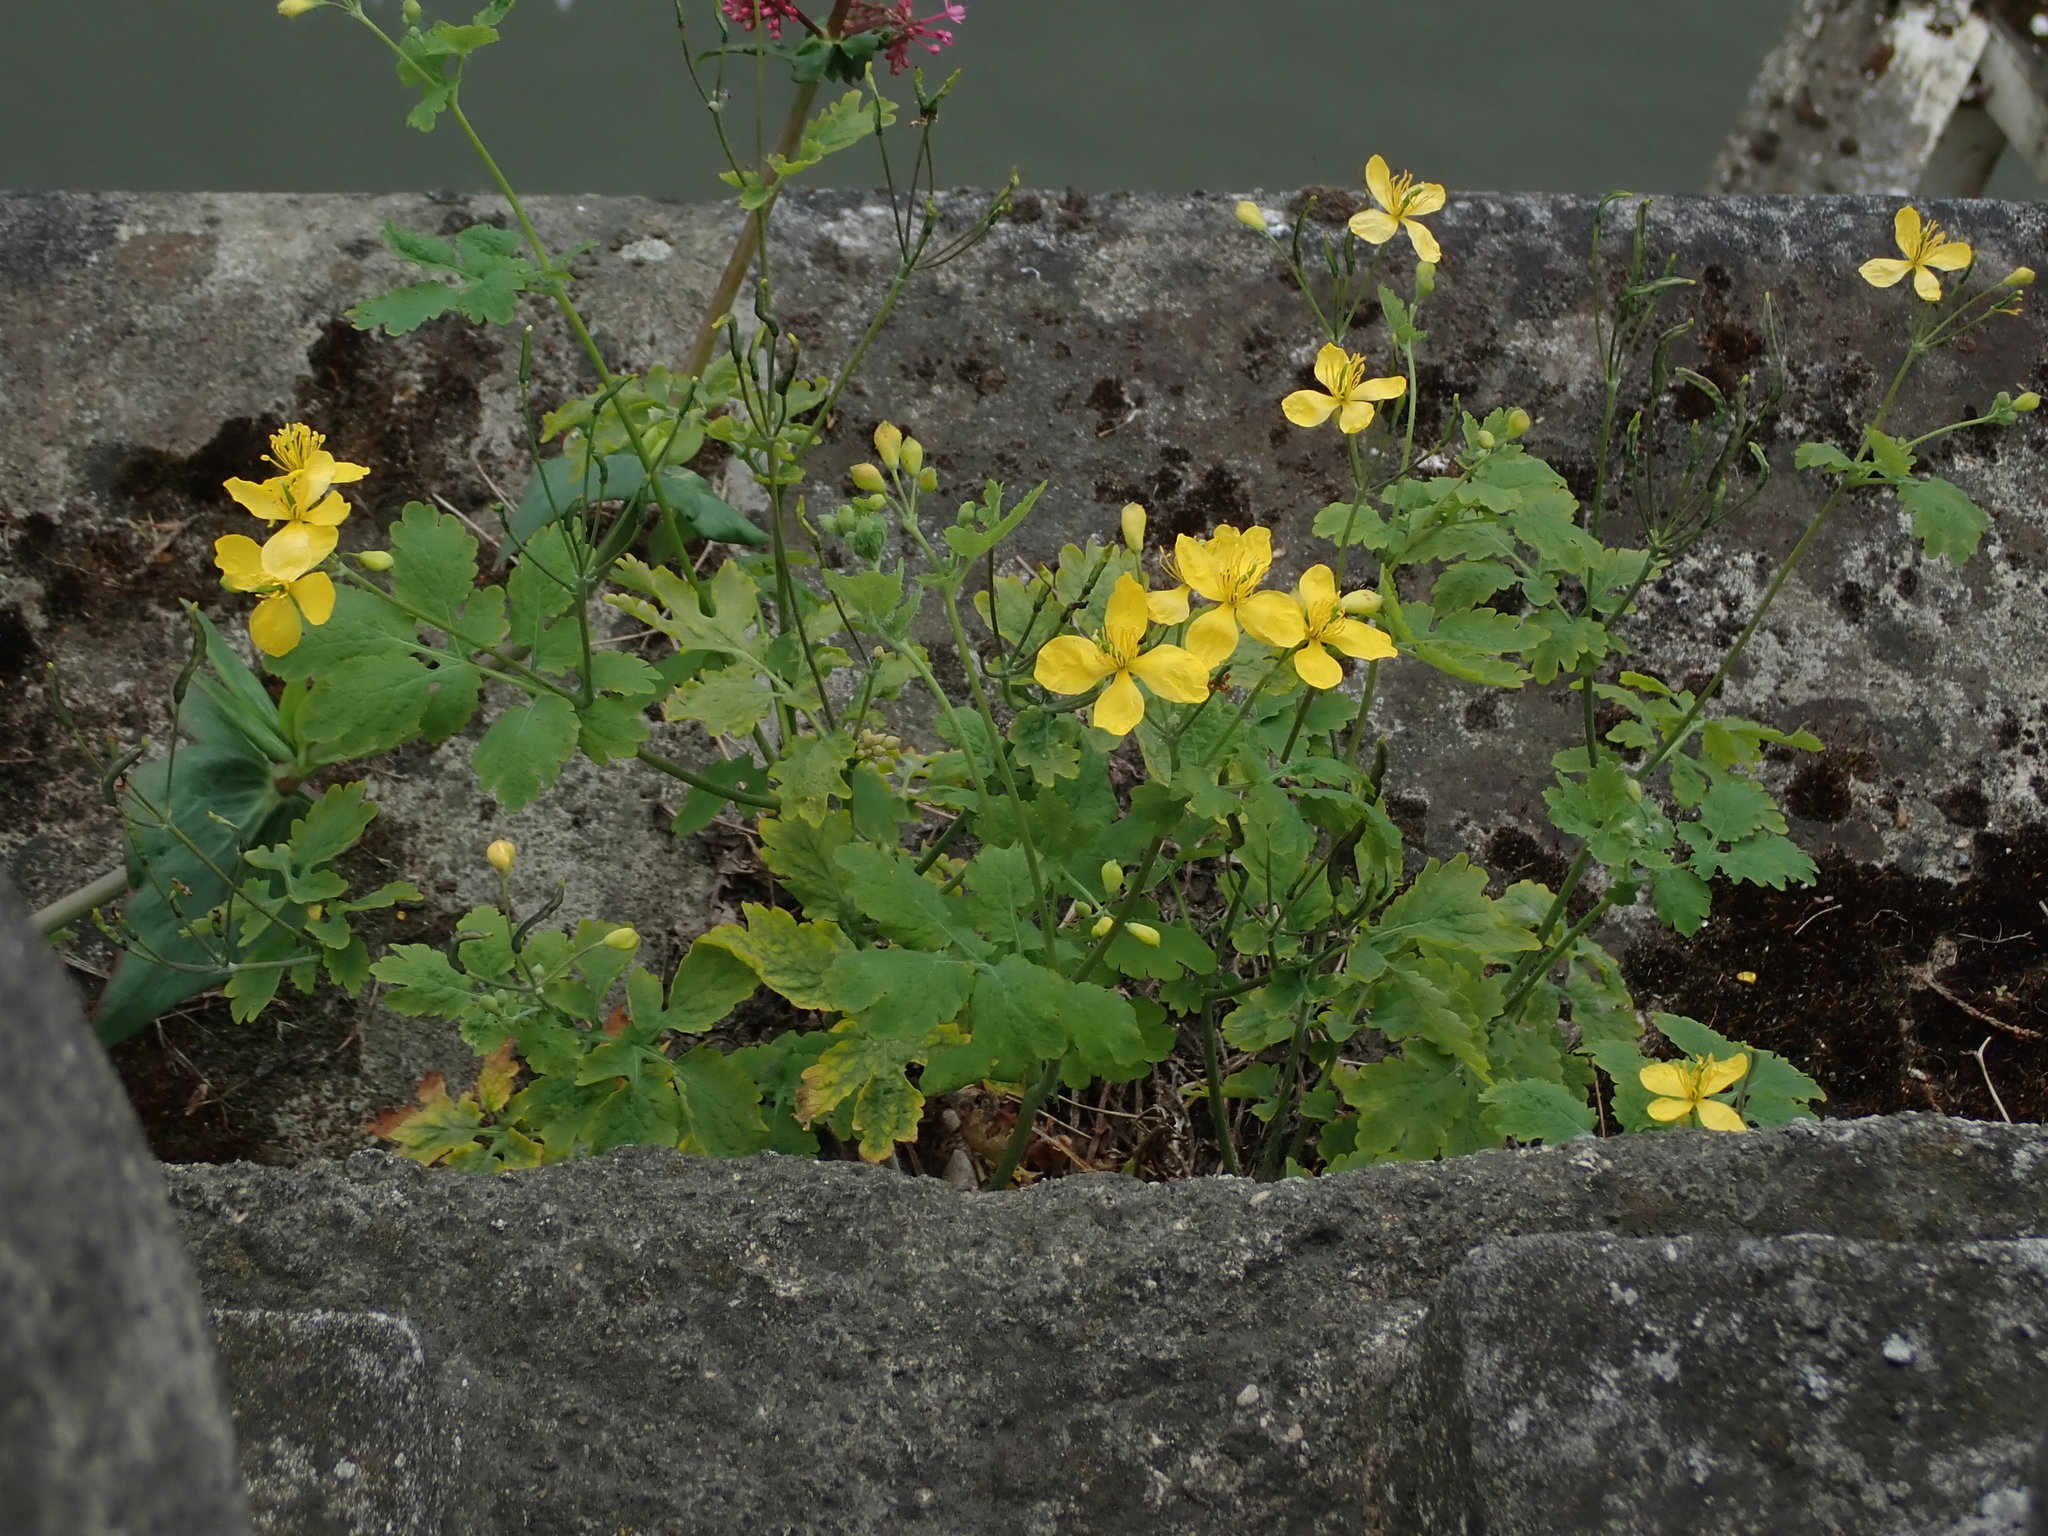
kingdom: Plantae
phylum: Tracheophyta
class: Magnoliopsida
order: Ranunculales
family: Papaveraceae
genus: Chelidonium
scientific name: Chelidonium majus
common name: Greater celandine
